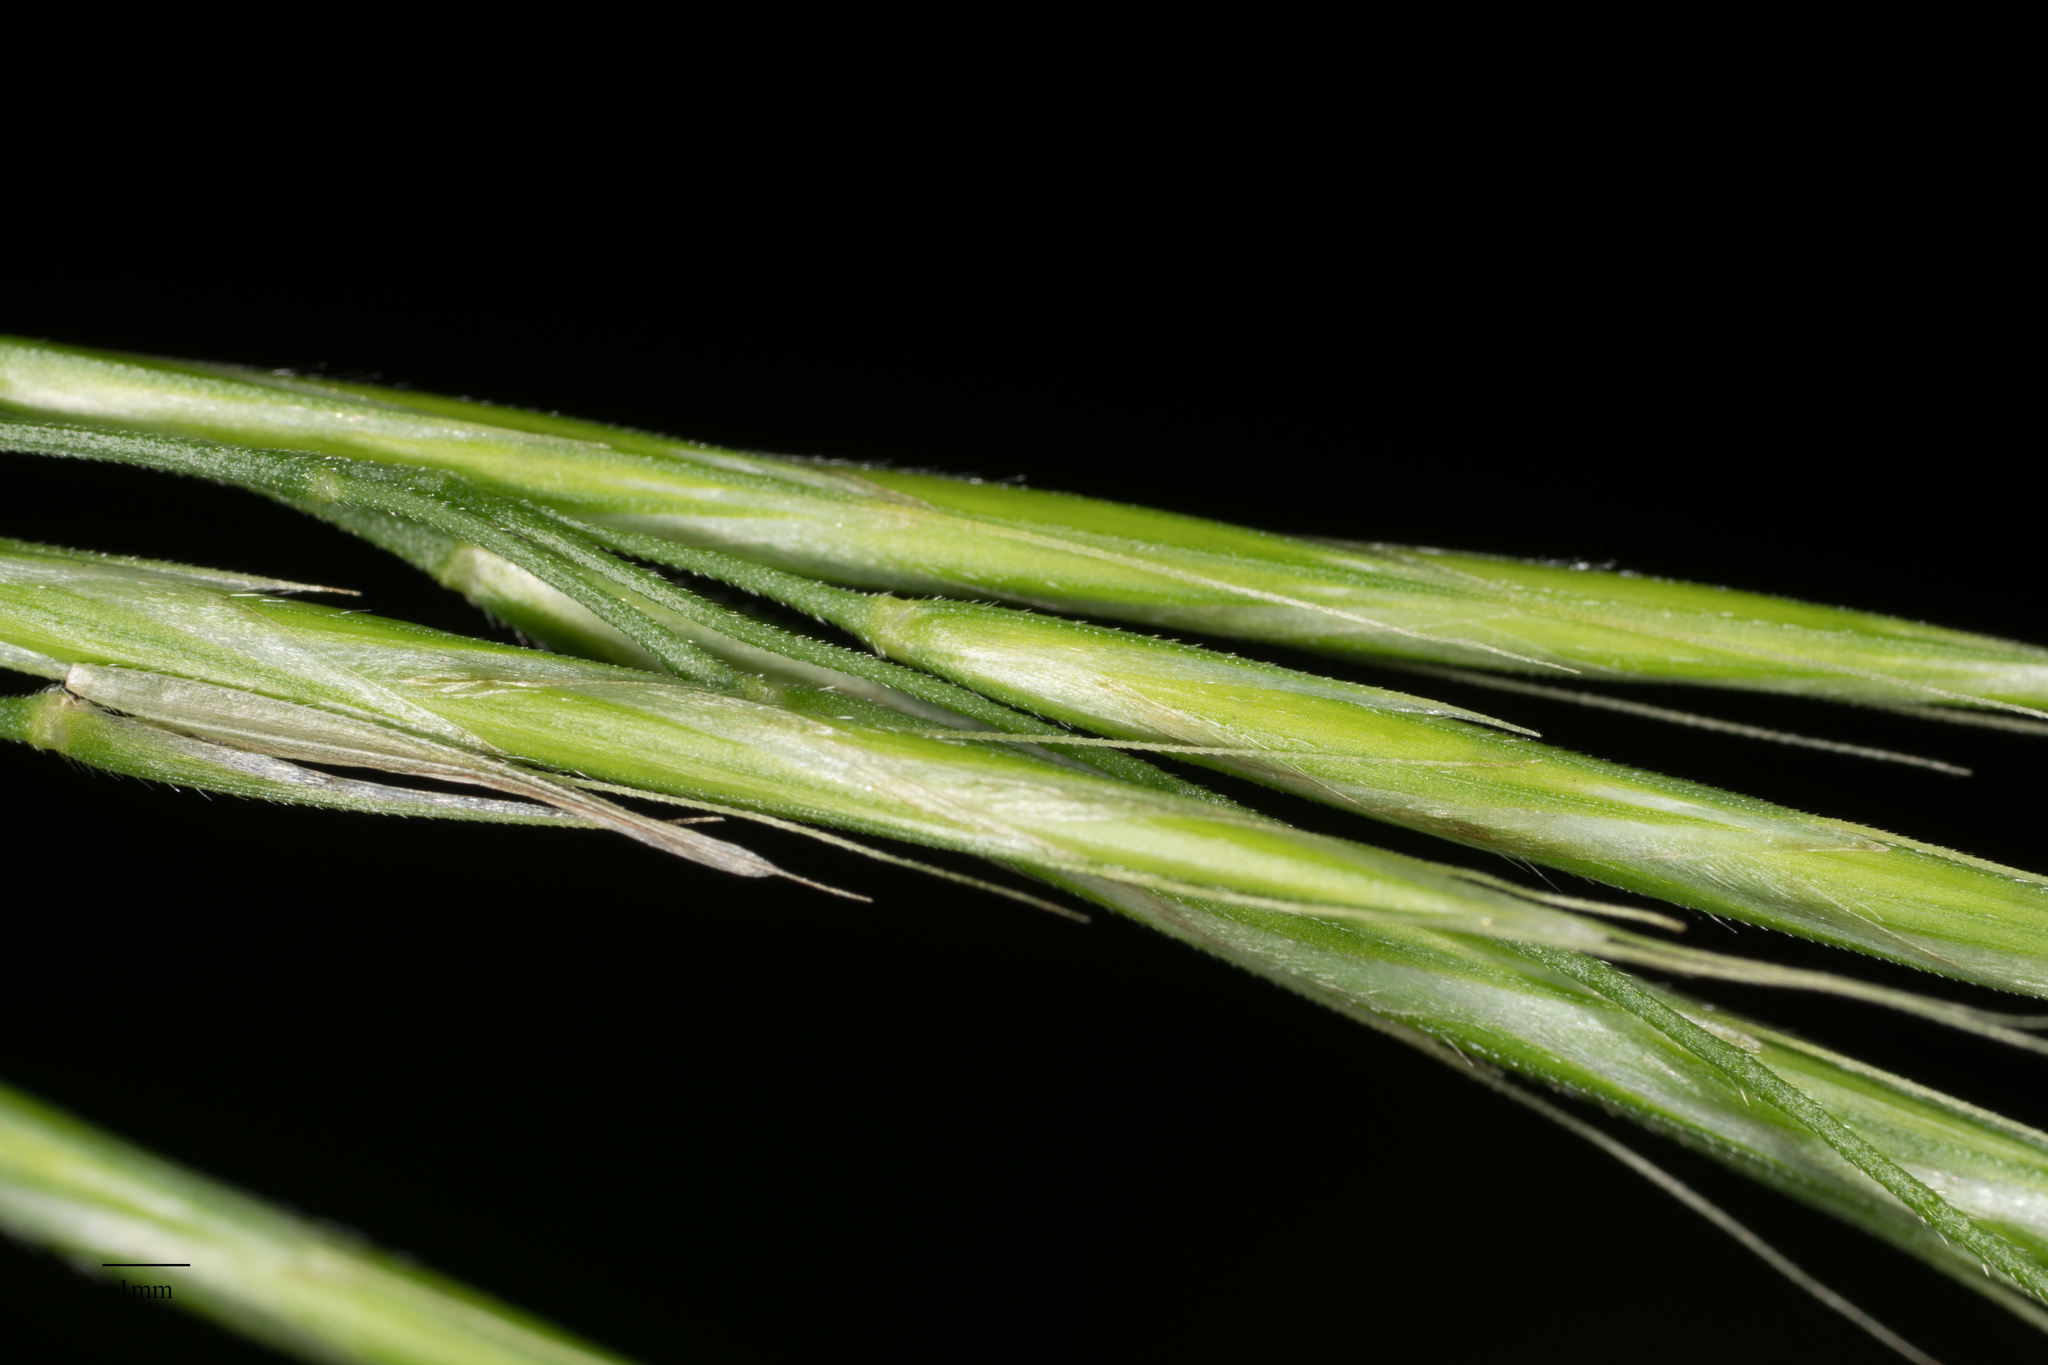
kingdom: Plantae
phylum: Tracheophyta
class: Liliopsida
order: Poales
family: Poaceae
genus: Bromus
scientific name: Bromus vulgaris
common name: Columbia brome
